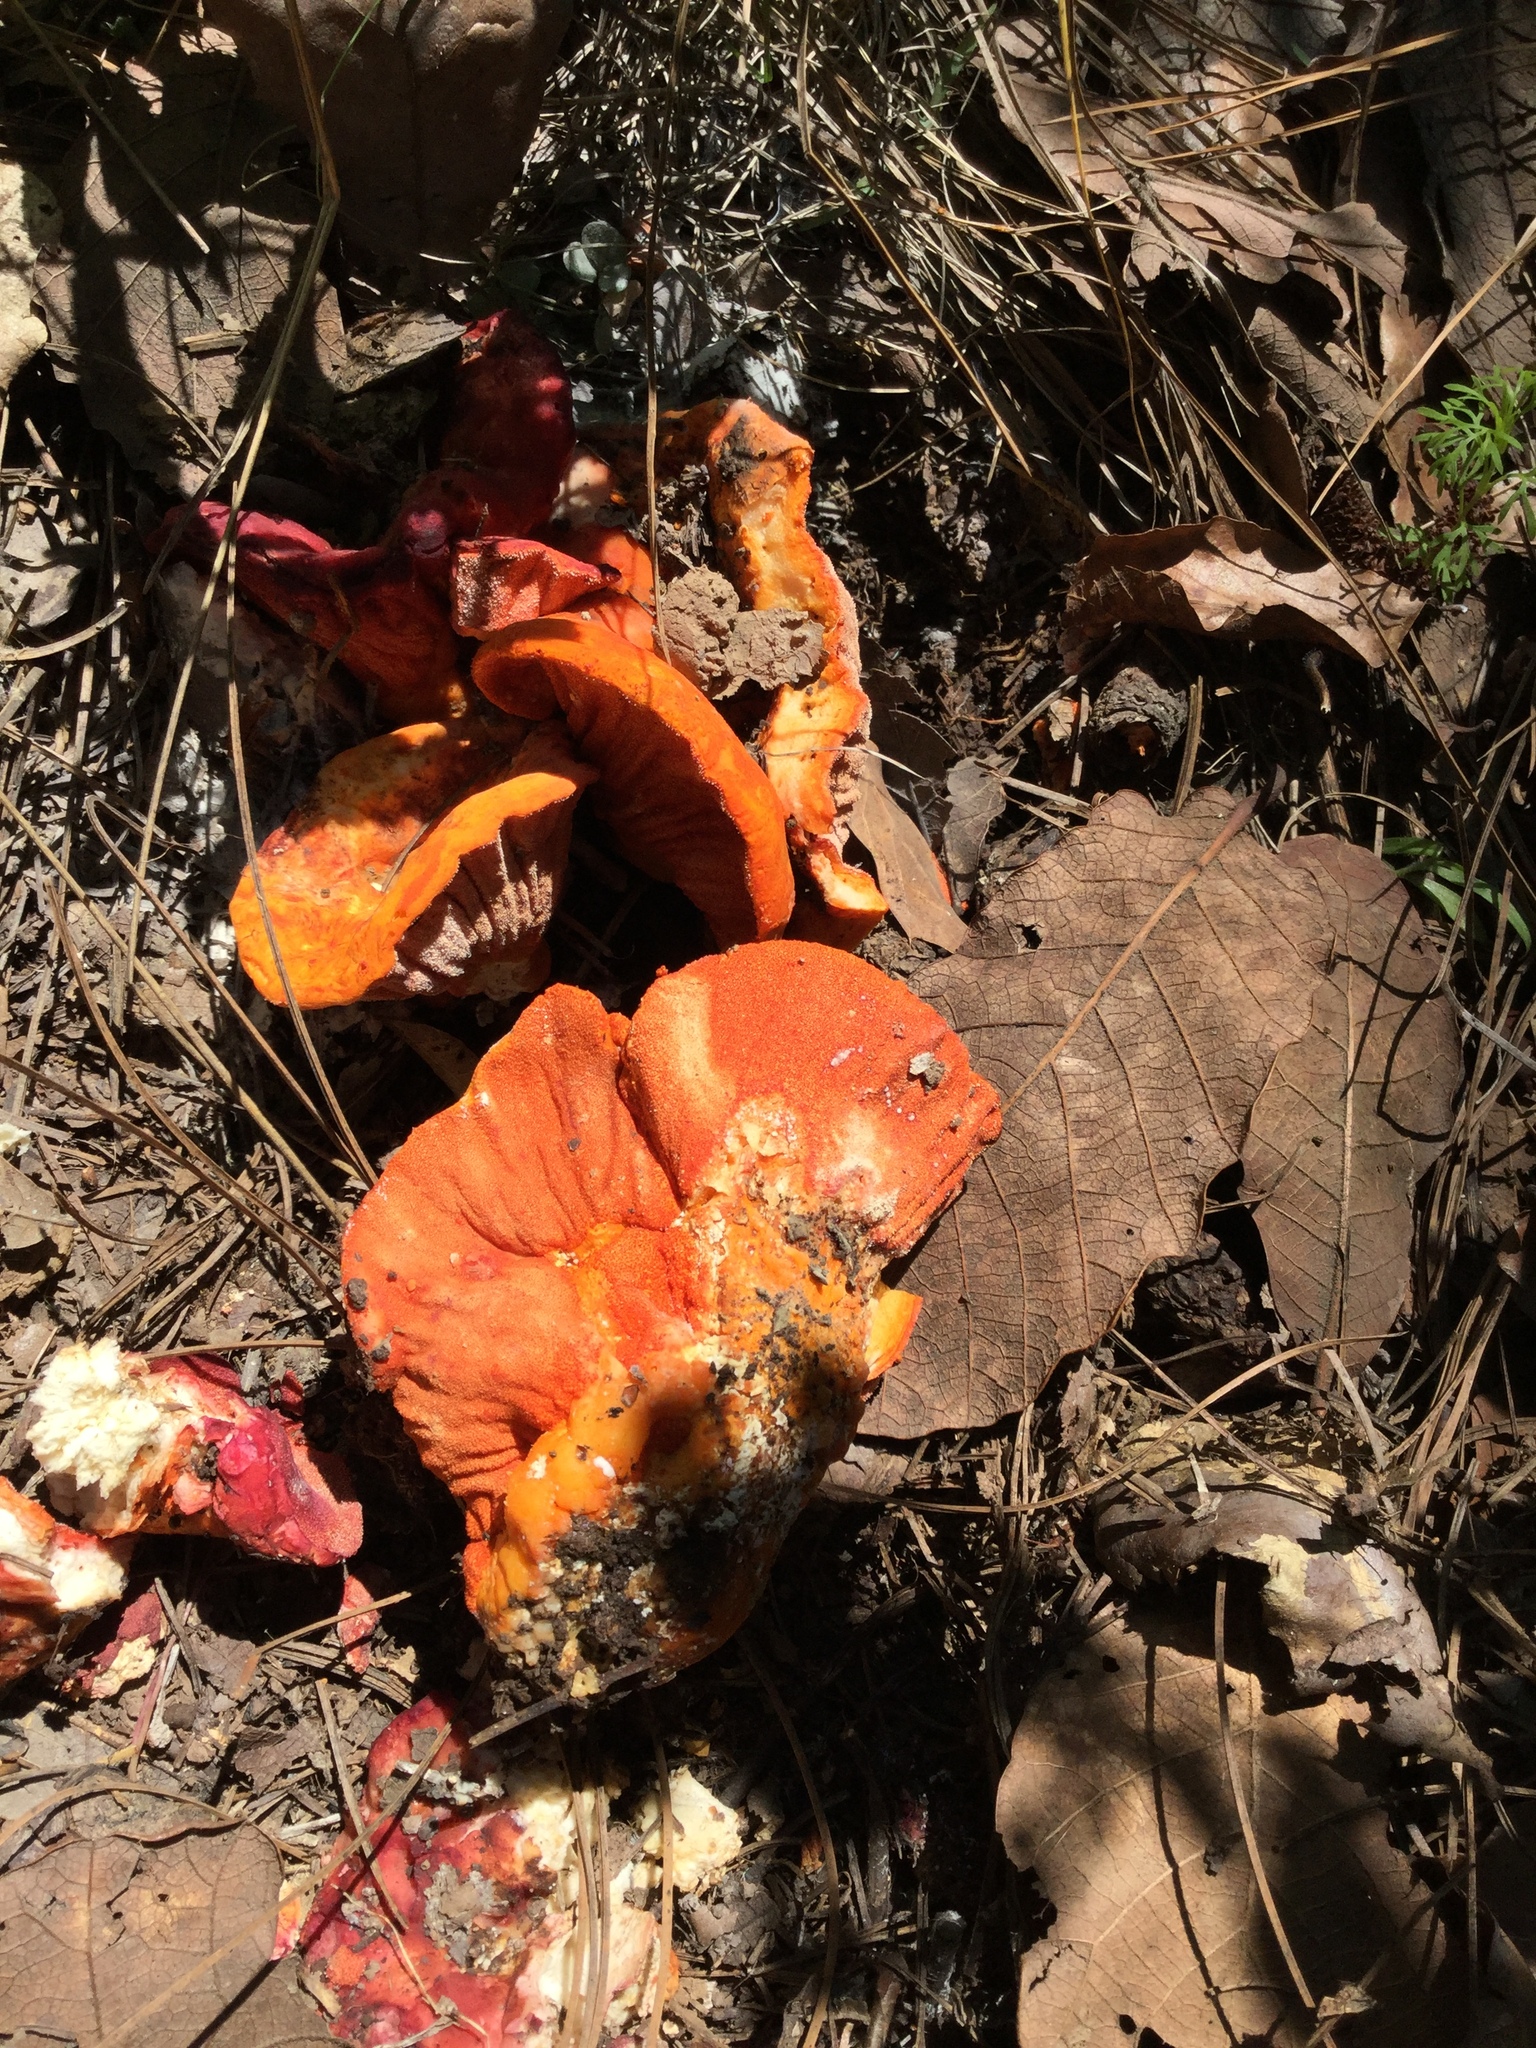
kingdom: Fungi
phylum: Ascomycota
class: Sordariomycetes
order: Hypocreales
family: Hypocreaceae
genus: Hypomyces
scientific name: Hypomyces lactifluorum
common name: Lobster mushroom
